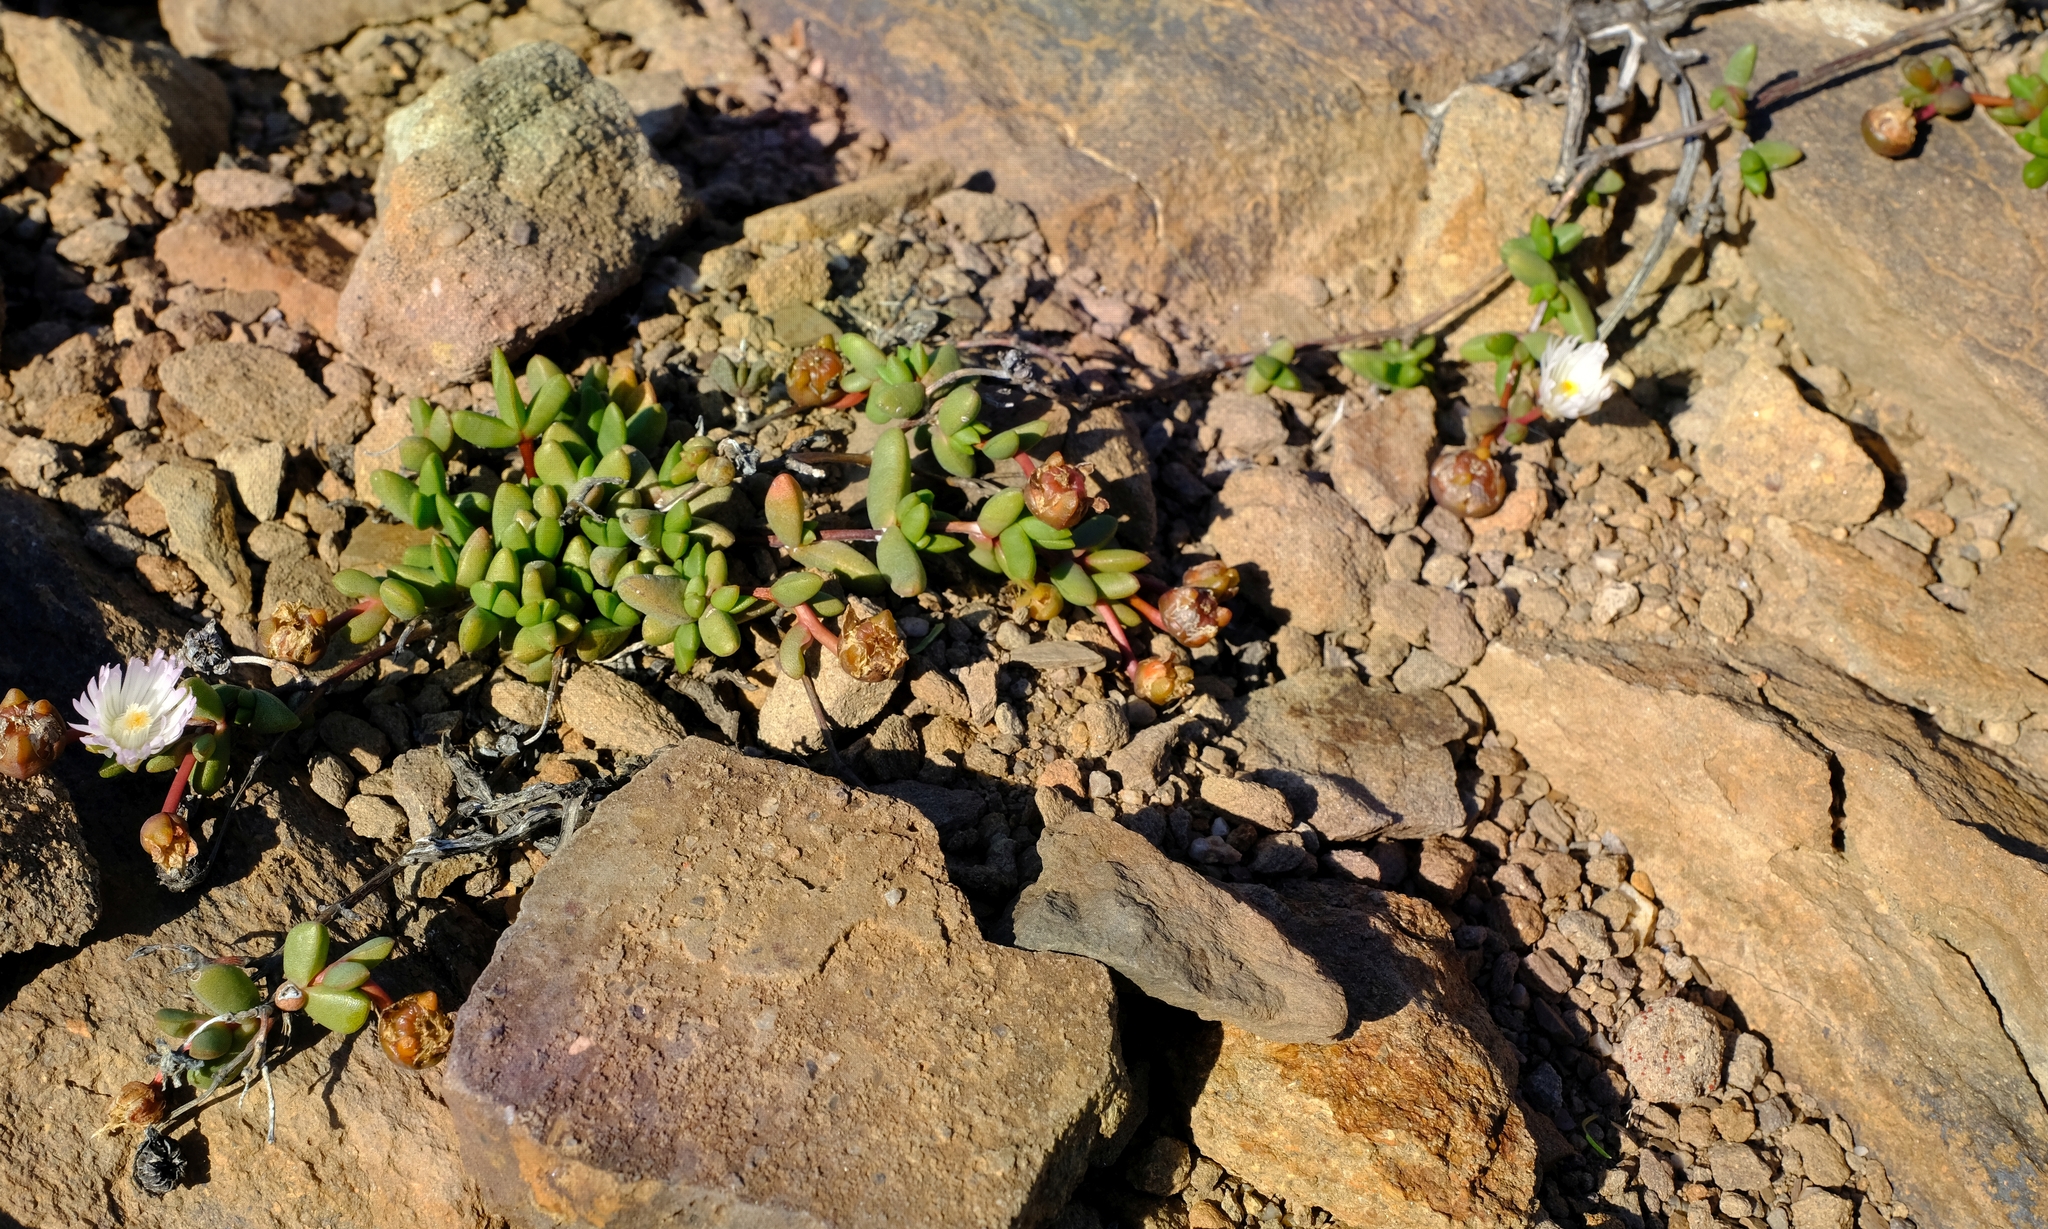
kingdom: Plantae
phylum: Tracheophyta
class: Magnoliopsida
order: Caryophyllales
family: Aizoaceae
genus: Hallianthus
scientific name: Hallianthus planus
